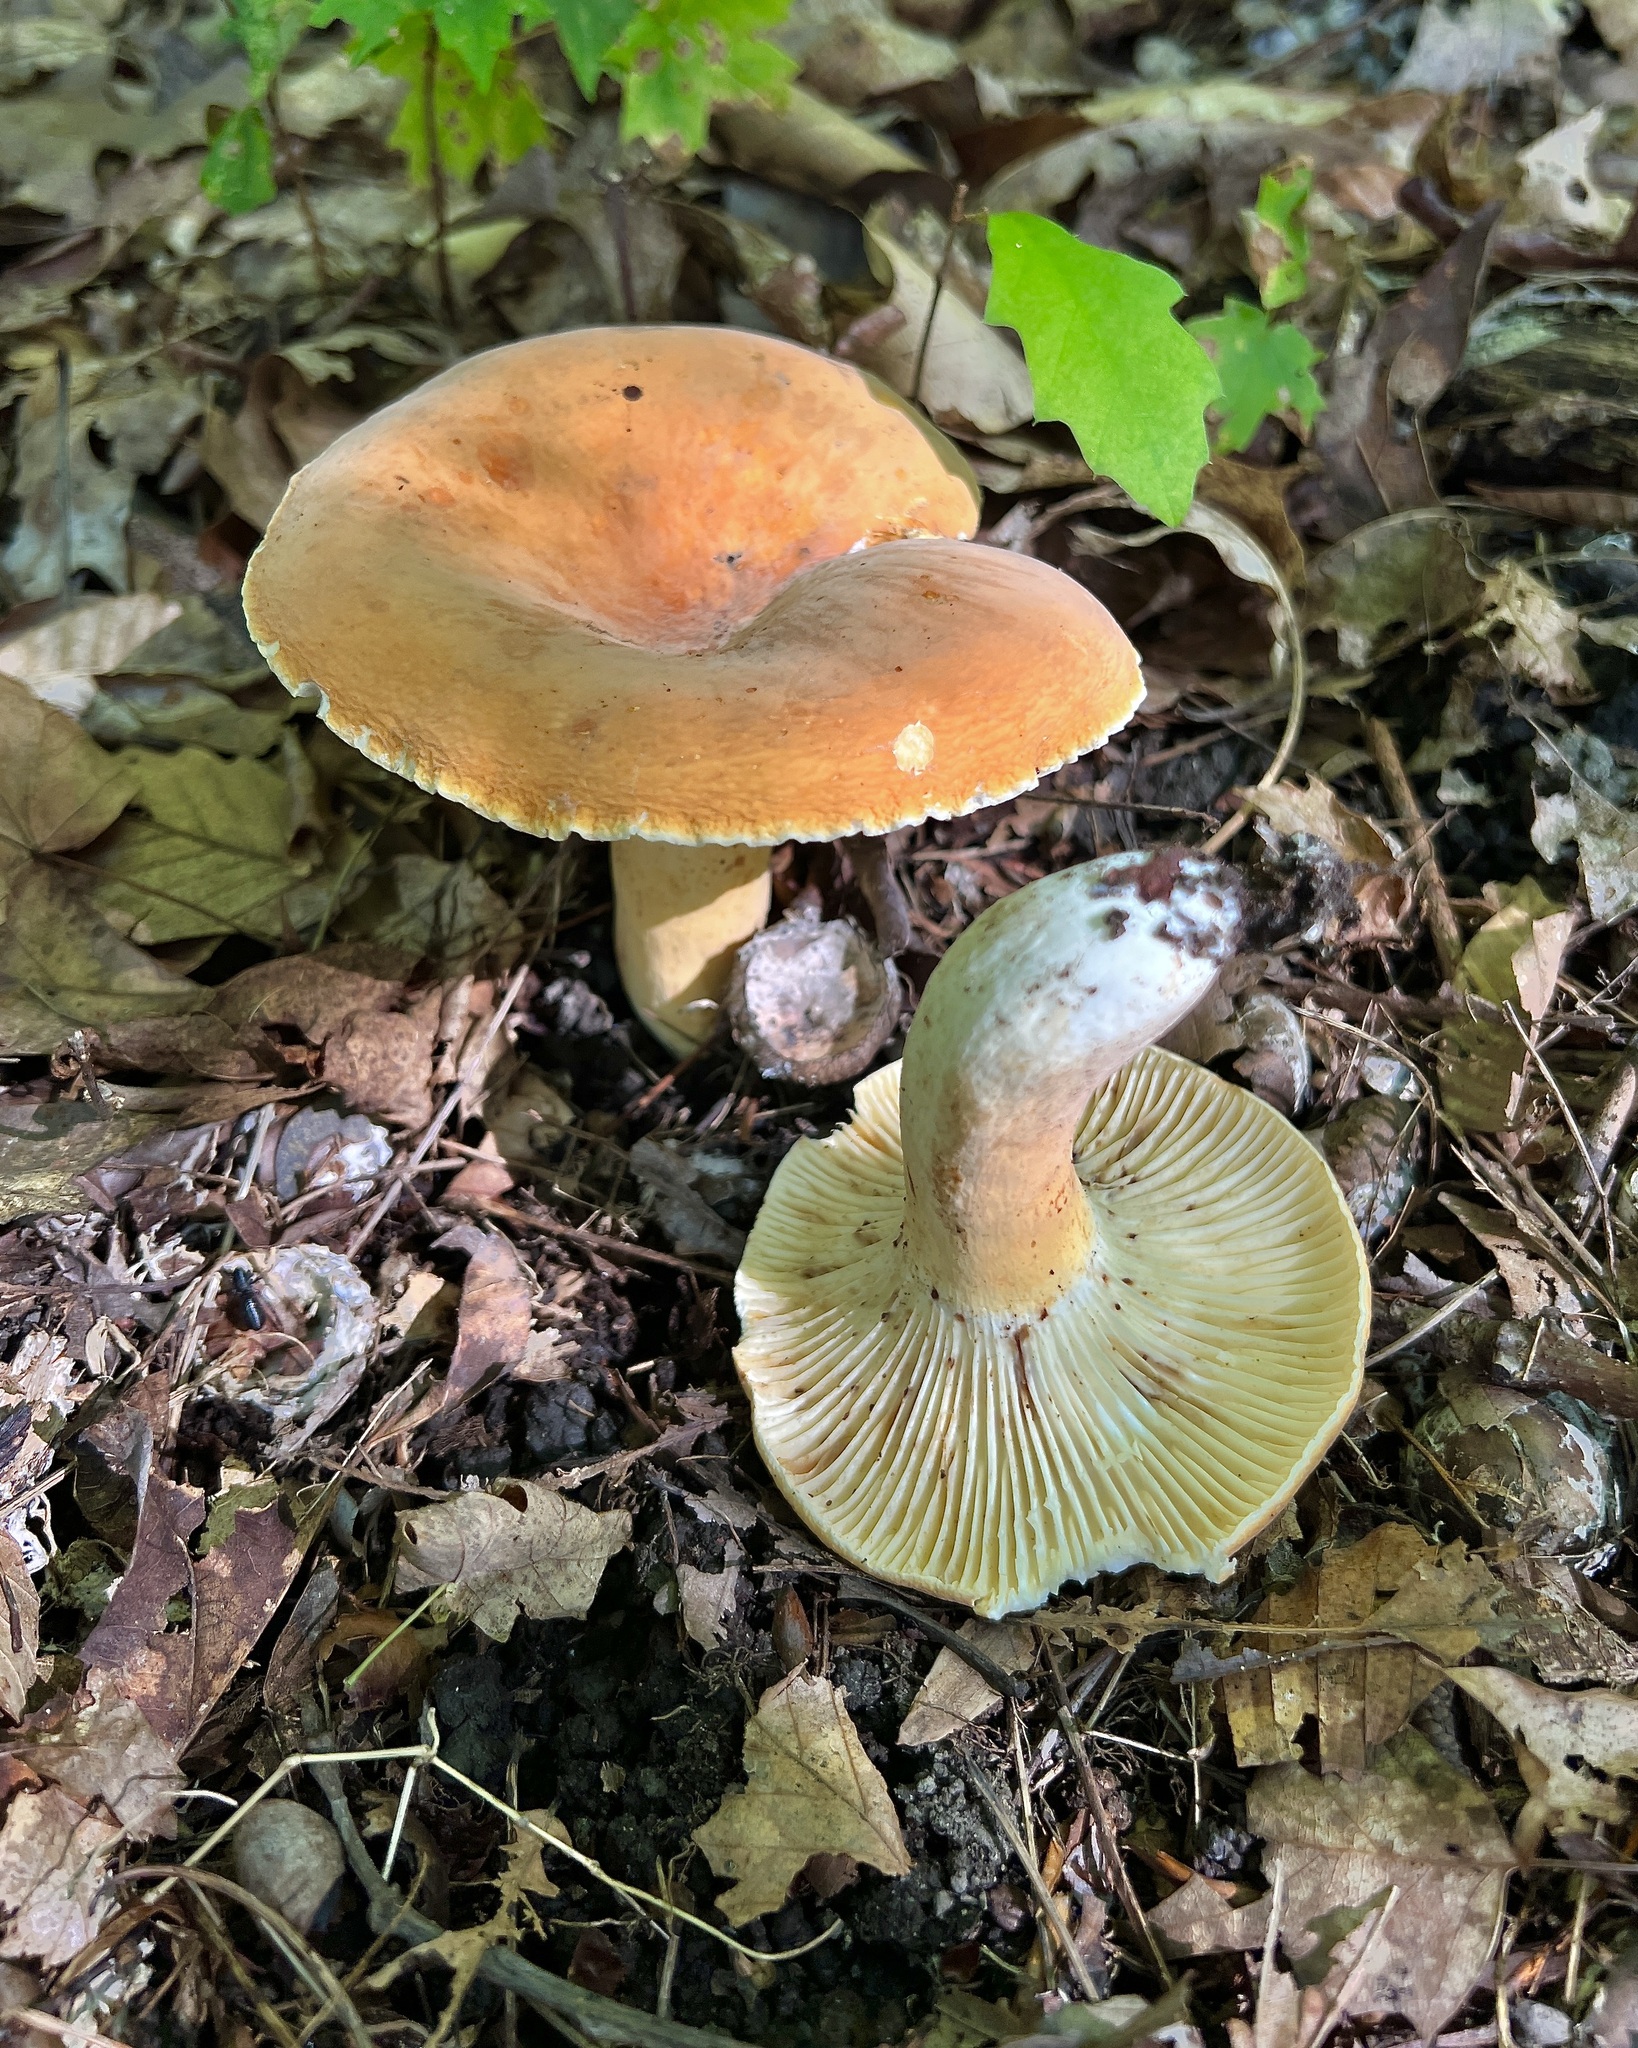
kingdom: Fungi
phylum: Basidiomycota
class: Agaricomycetes
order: Russulales
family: Russulaceae
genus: Lactarius
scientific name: Lactarius hygrophoroides
